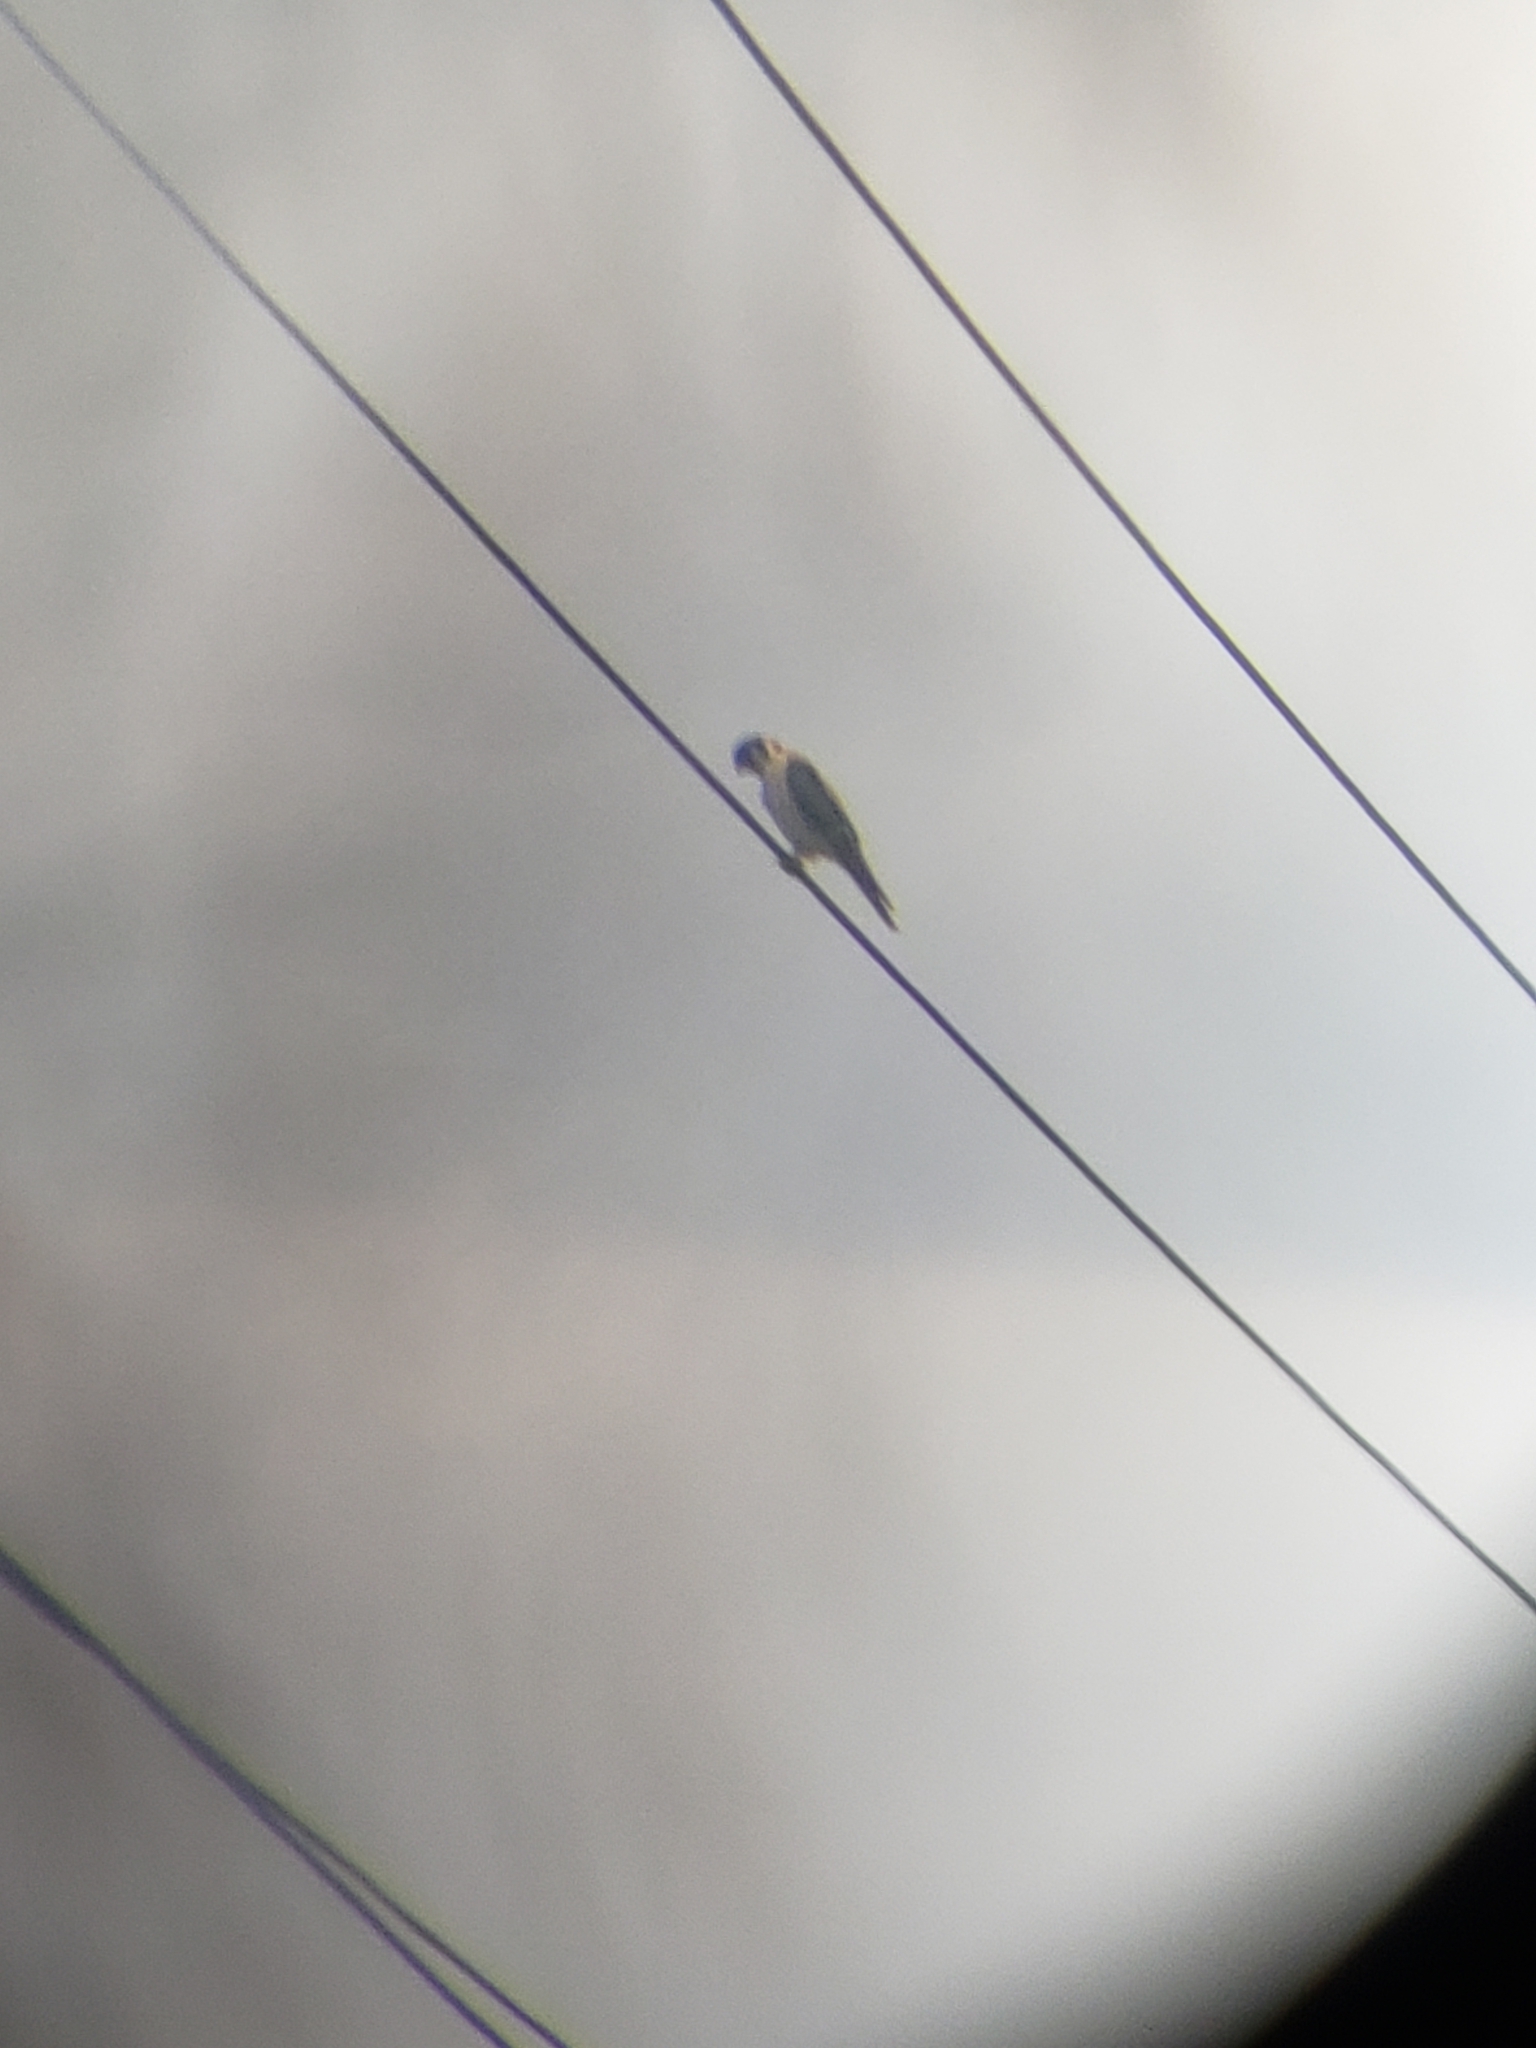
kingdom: Animalia
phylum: Chordata
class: Aves
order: Falconiformes
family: Falconidae
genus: Falco
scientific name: Falco sparverius
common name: American kestrel
